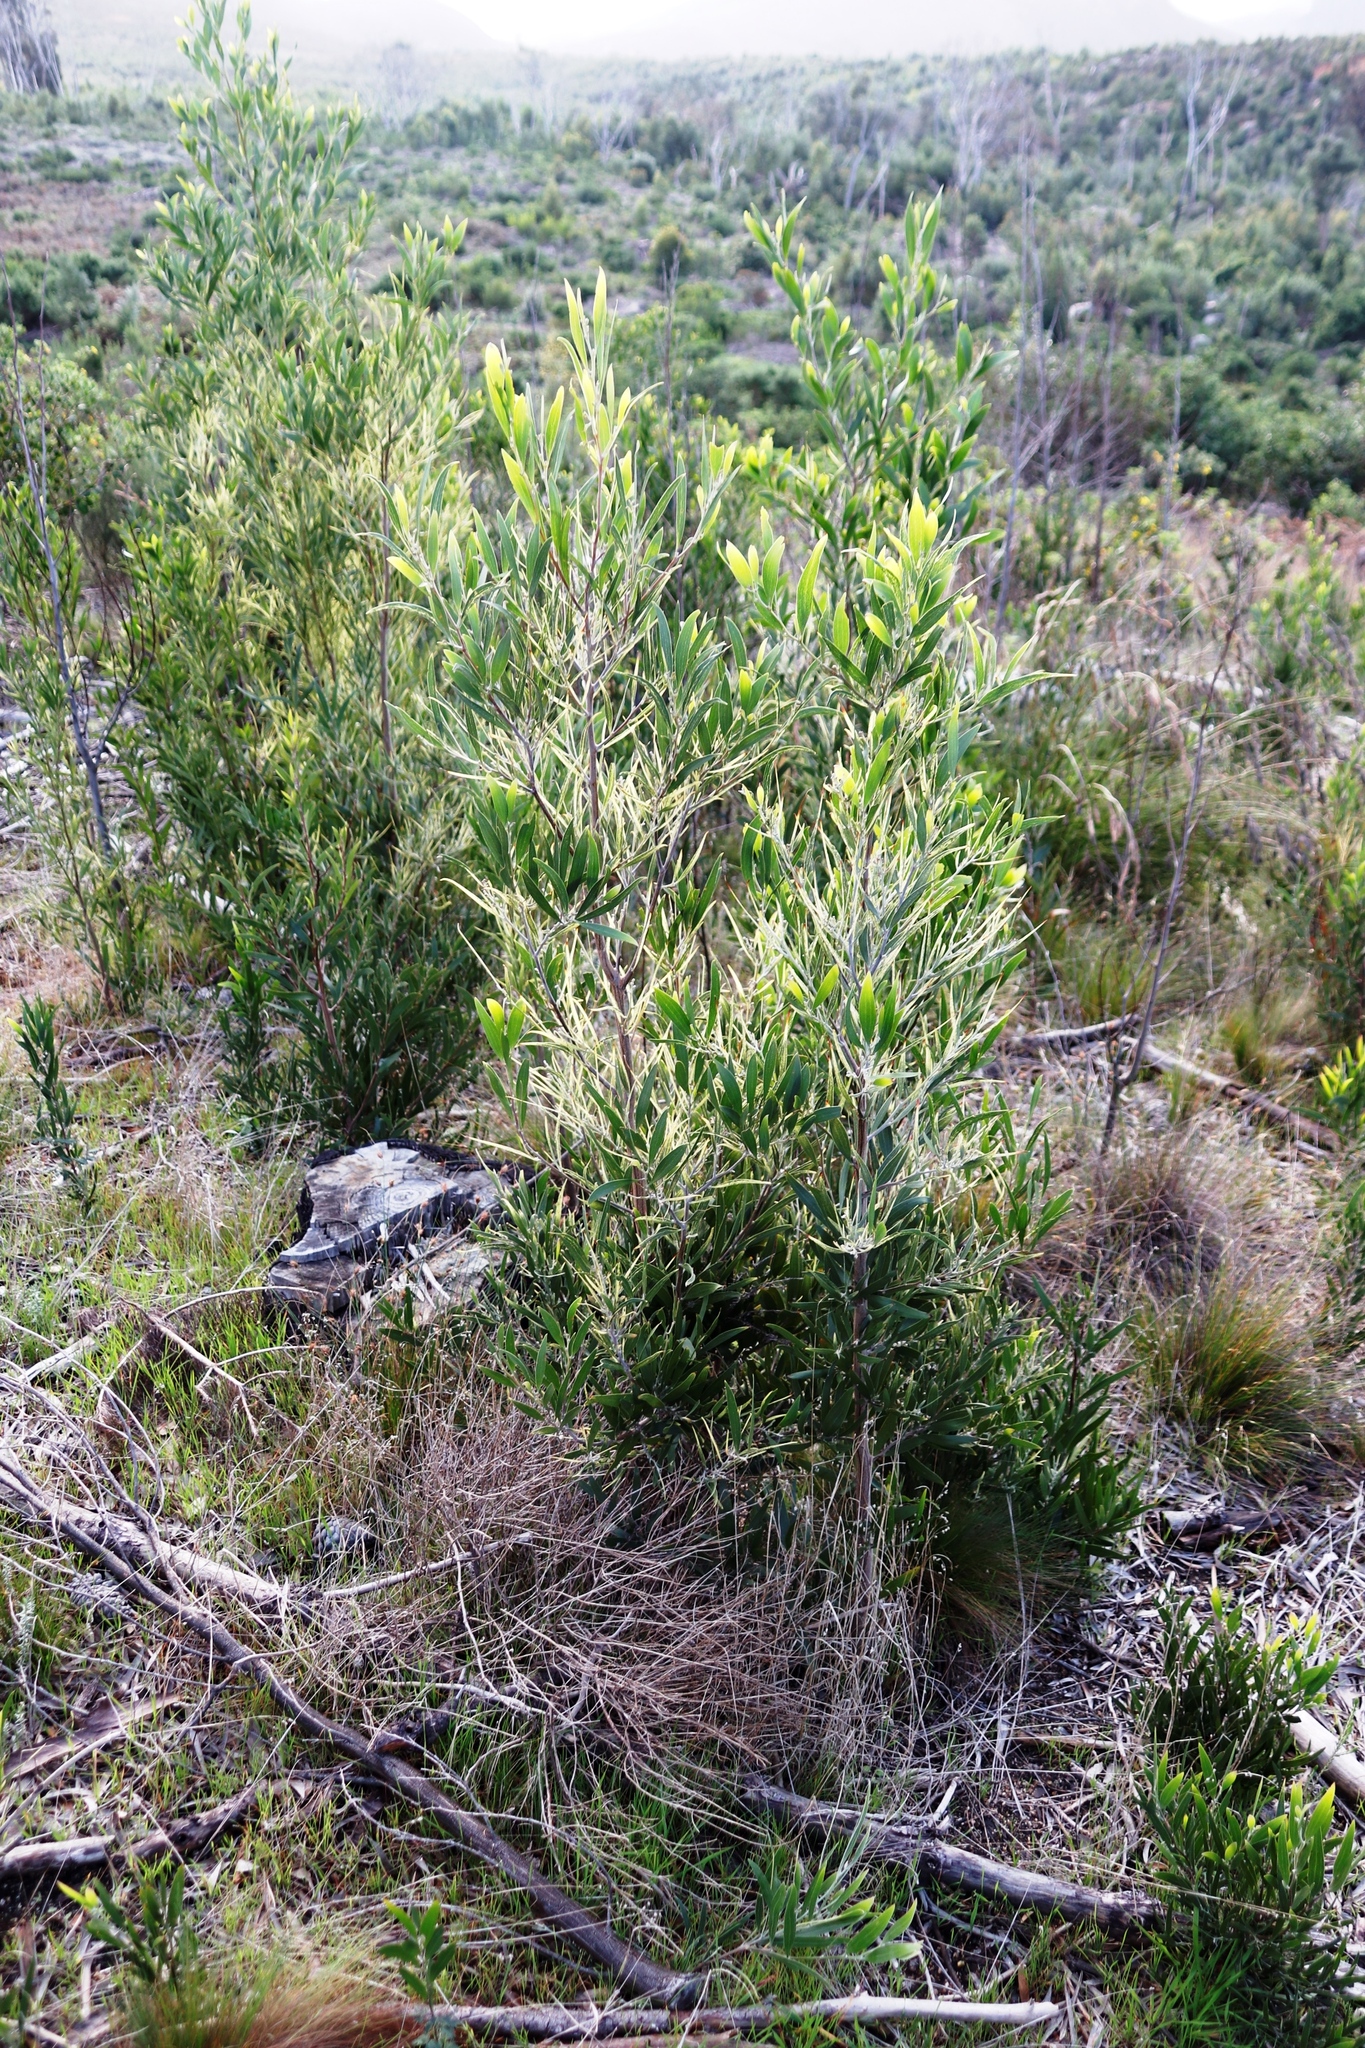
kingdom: Plantae
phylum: Tracheophyta
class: Magnoliopsida
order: Fabales
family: Fabaceae
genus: Acacia
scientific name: Acacia melanoxylon
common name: Blackwood
